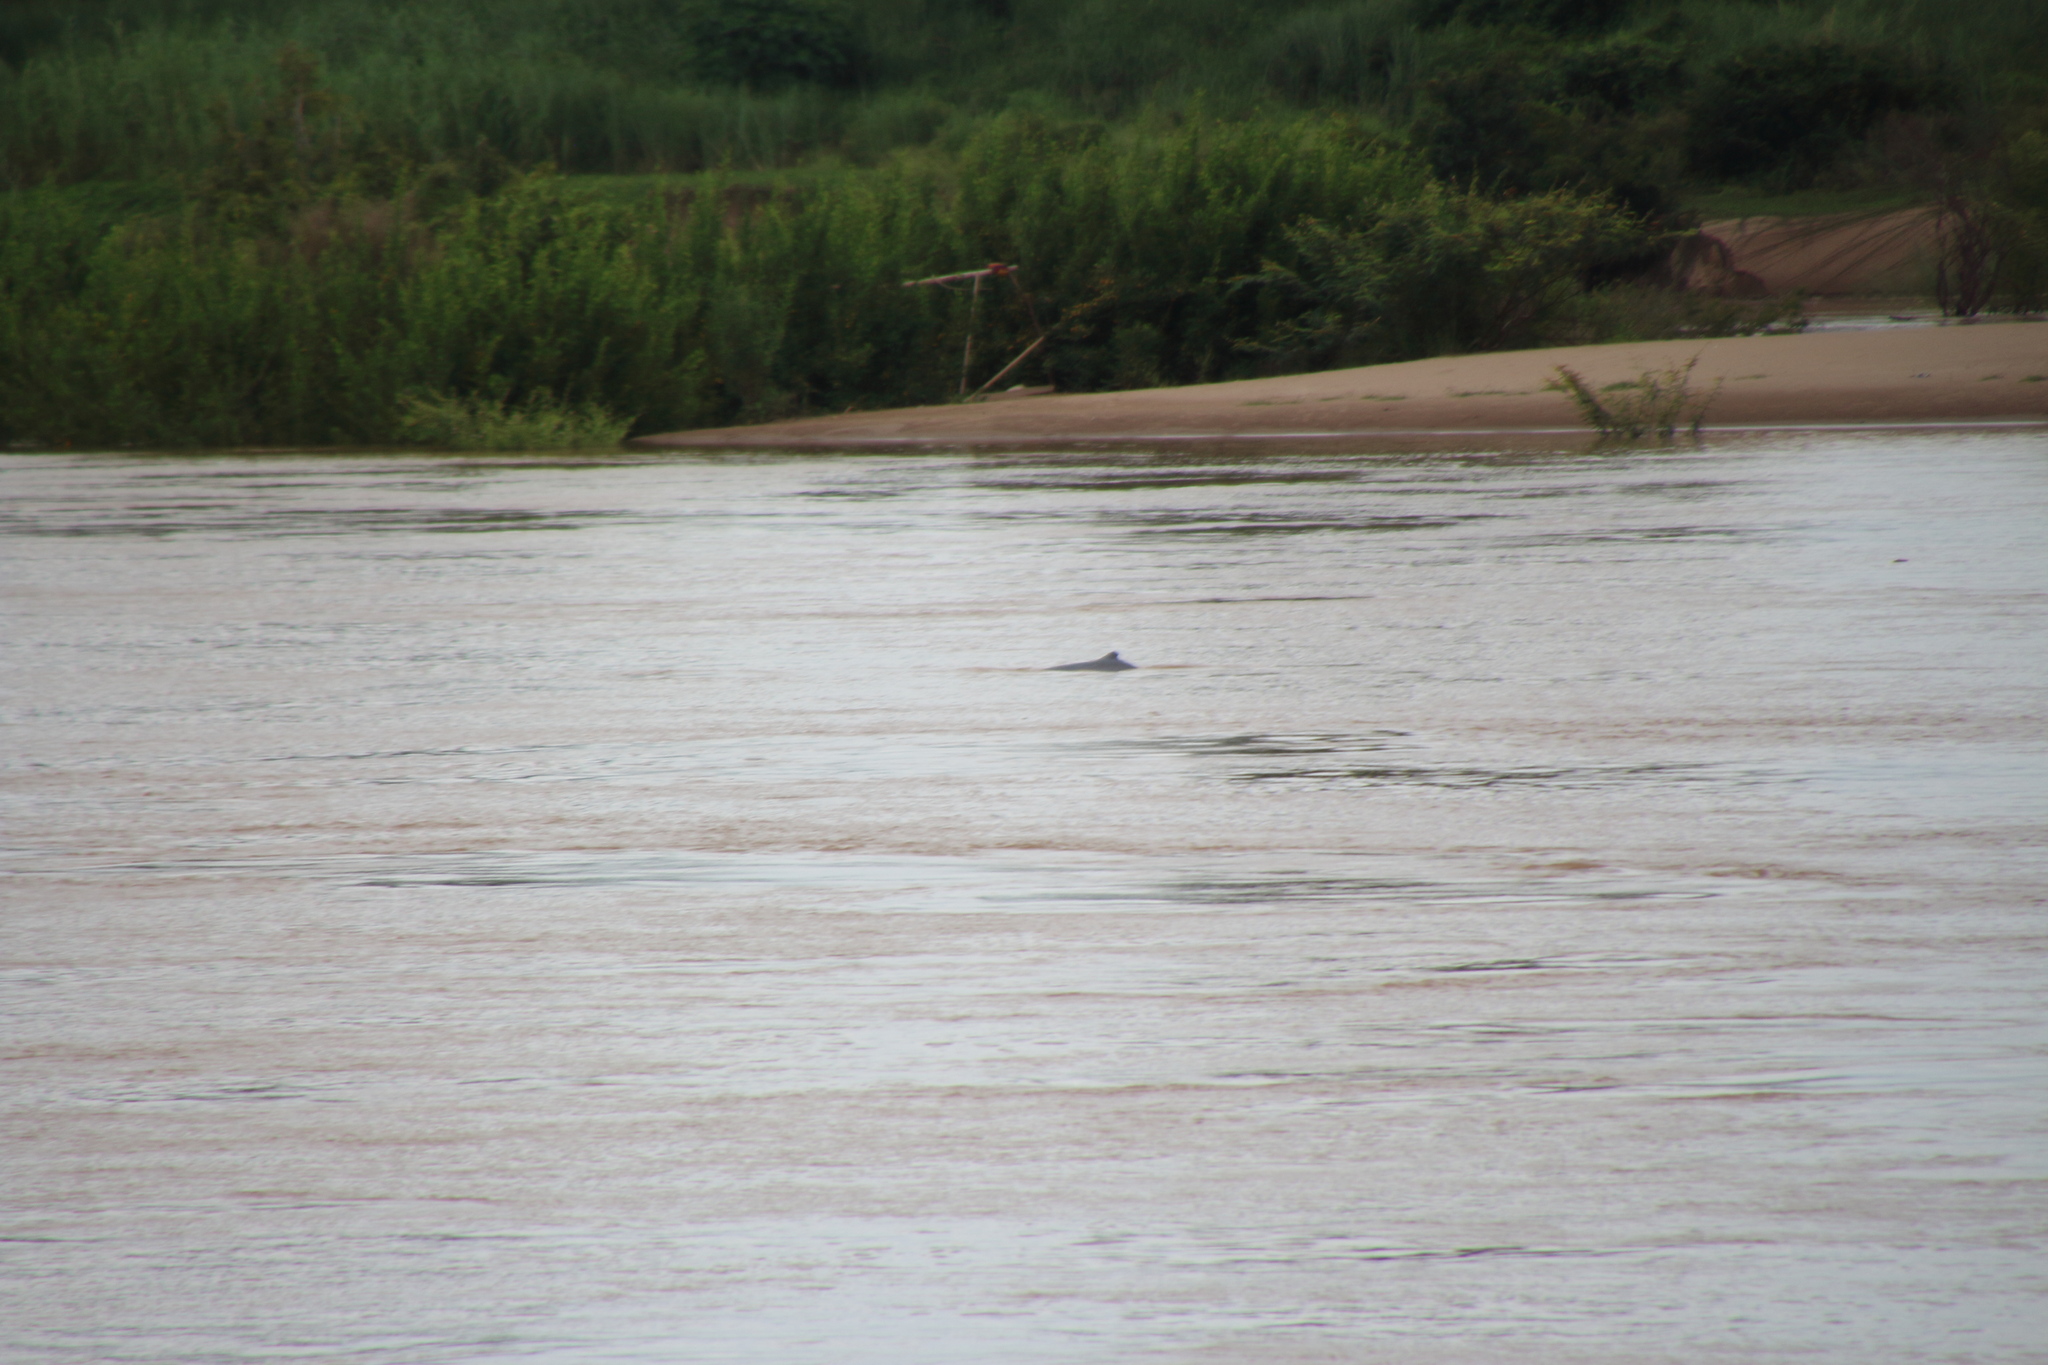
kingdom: Animalia
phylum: Chordata
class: Mammalia
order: Cetacea
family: Delphinidae
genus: Orcaella
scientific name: Orcaella brevirostris
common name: Irrawaddy dolphin
